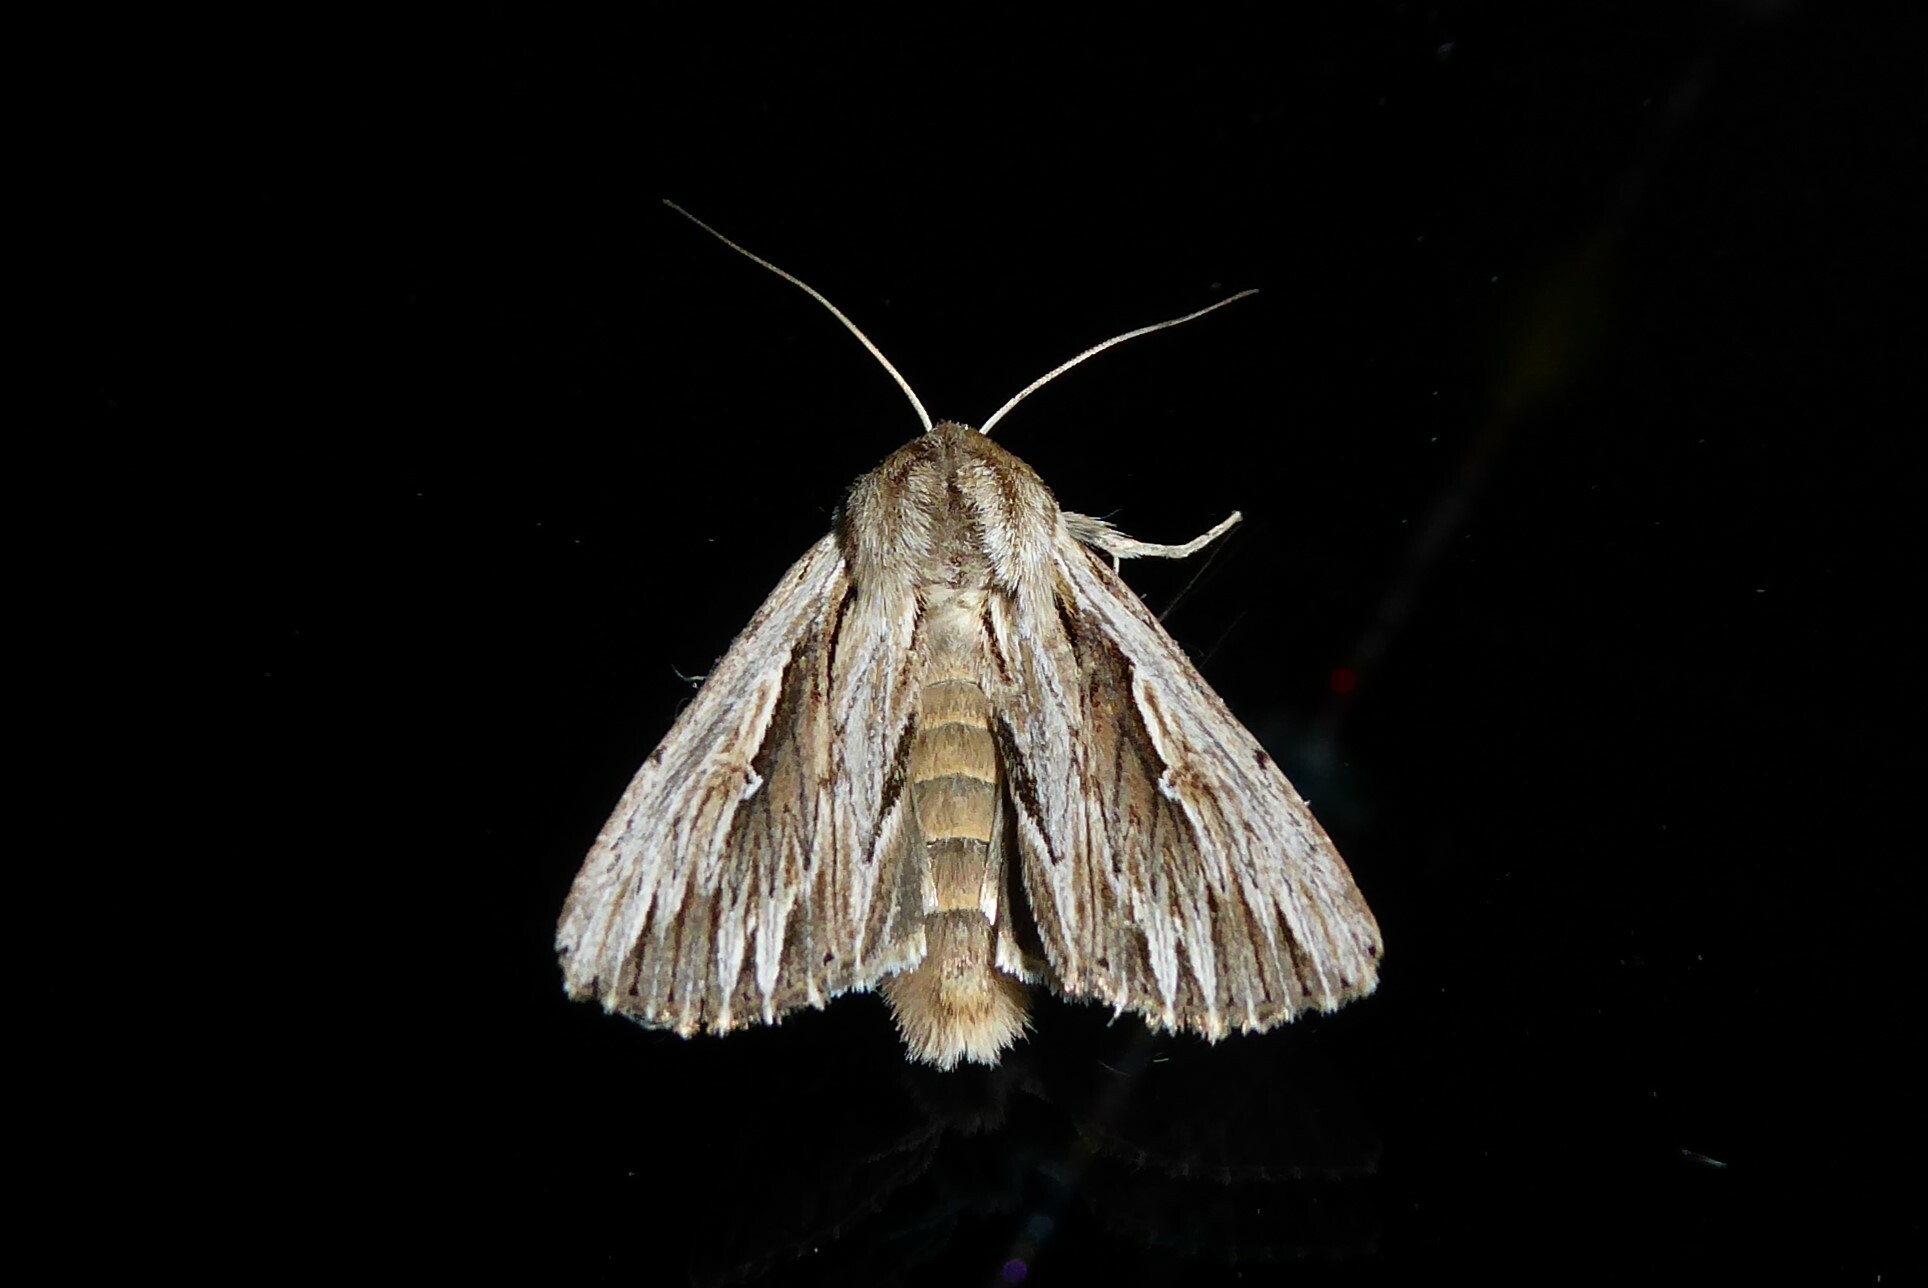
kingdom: Animalia
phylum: Arthropoda
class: Insecta
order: Lepidoptera
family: Noctuidae
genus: Persectania
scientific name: Persectania aversa
